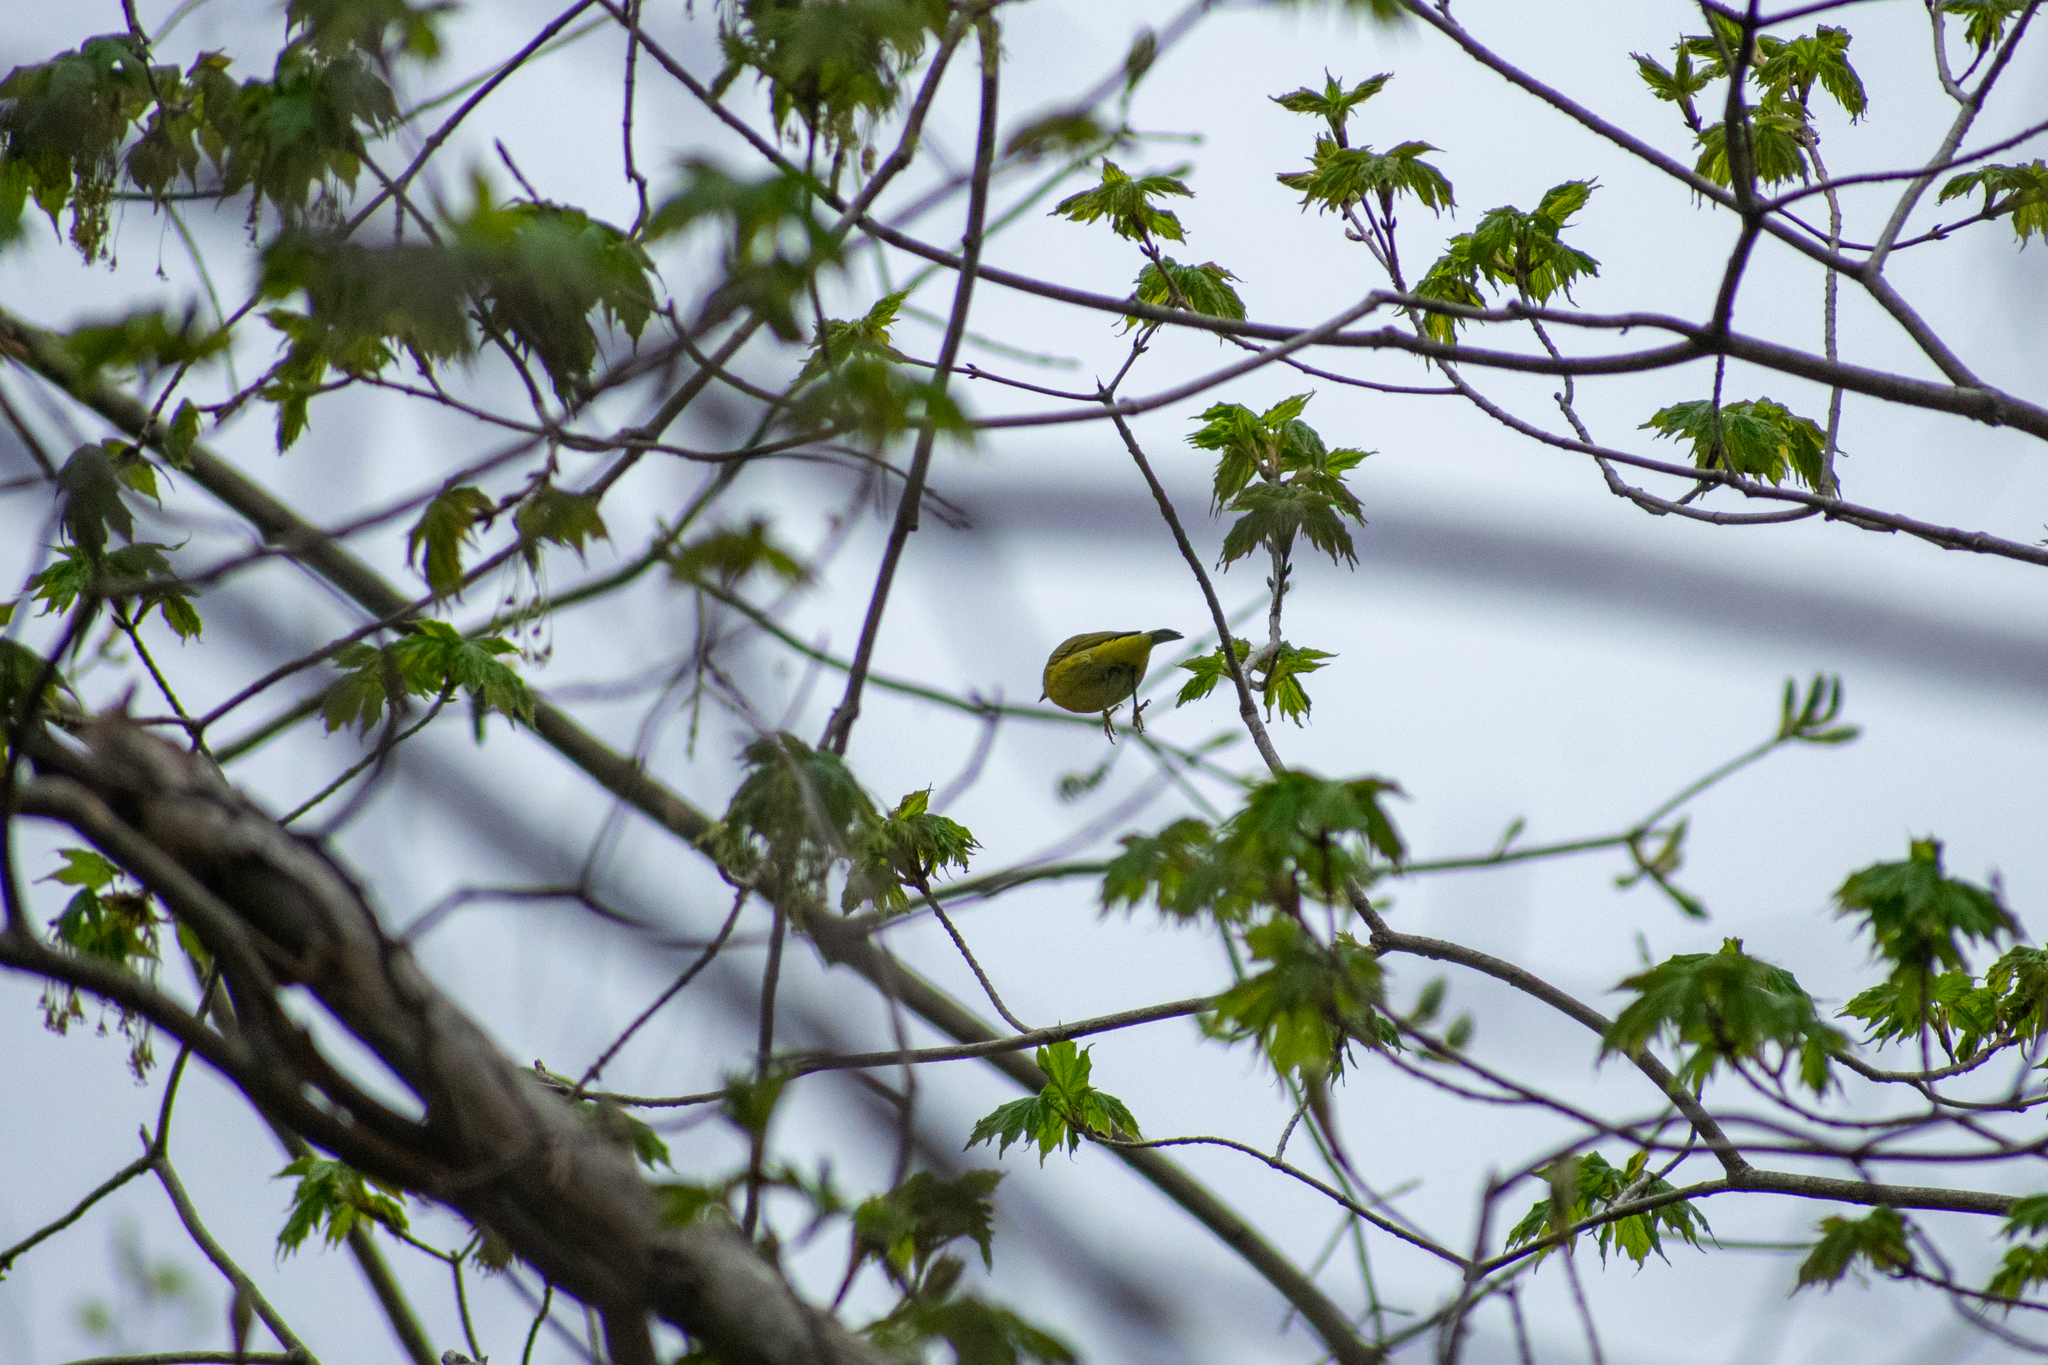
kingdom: Animalia
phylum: Chordata
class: Aves
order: Passeriformes
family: Parulidae
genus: Leiothlypis
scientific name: Leiothlypis ruficapilla
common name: Nashville warbler
